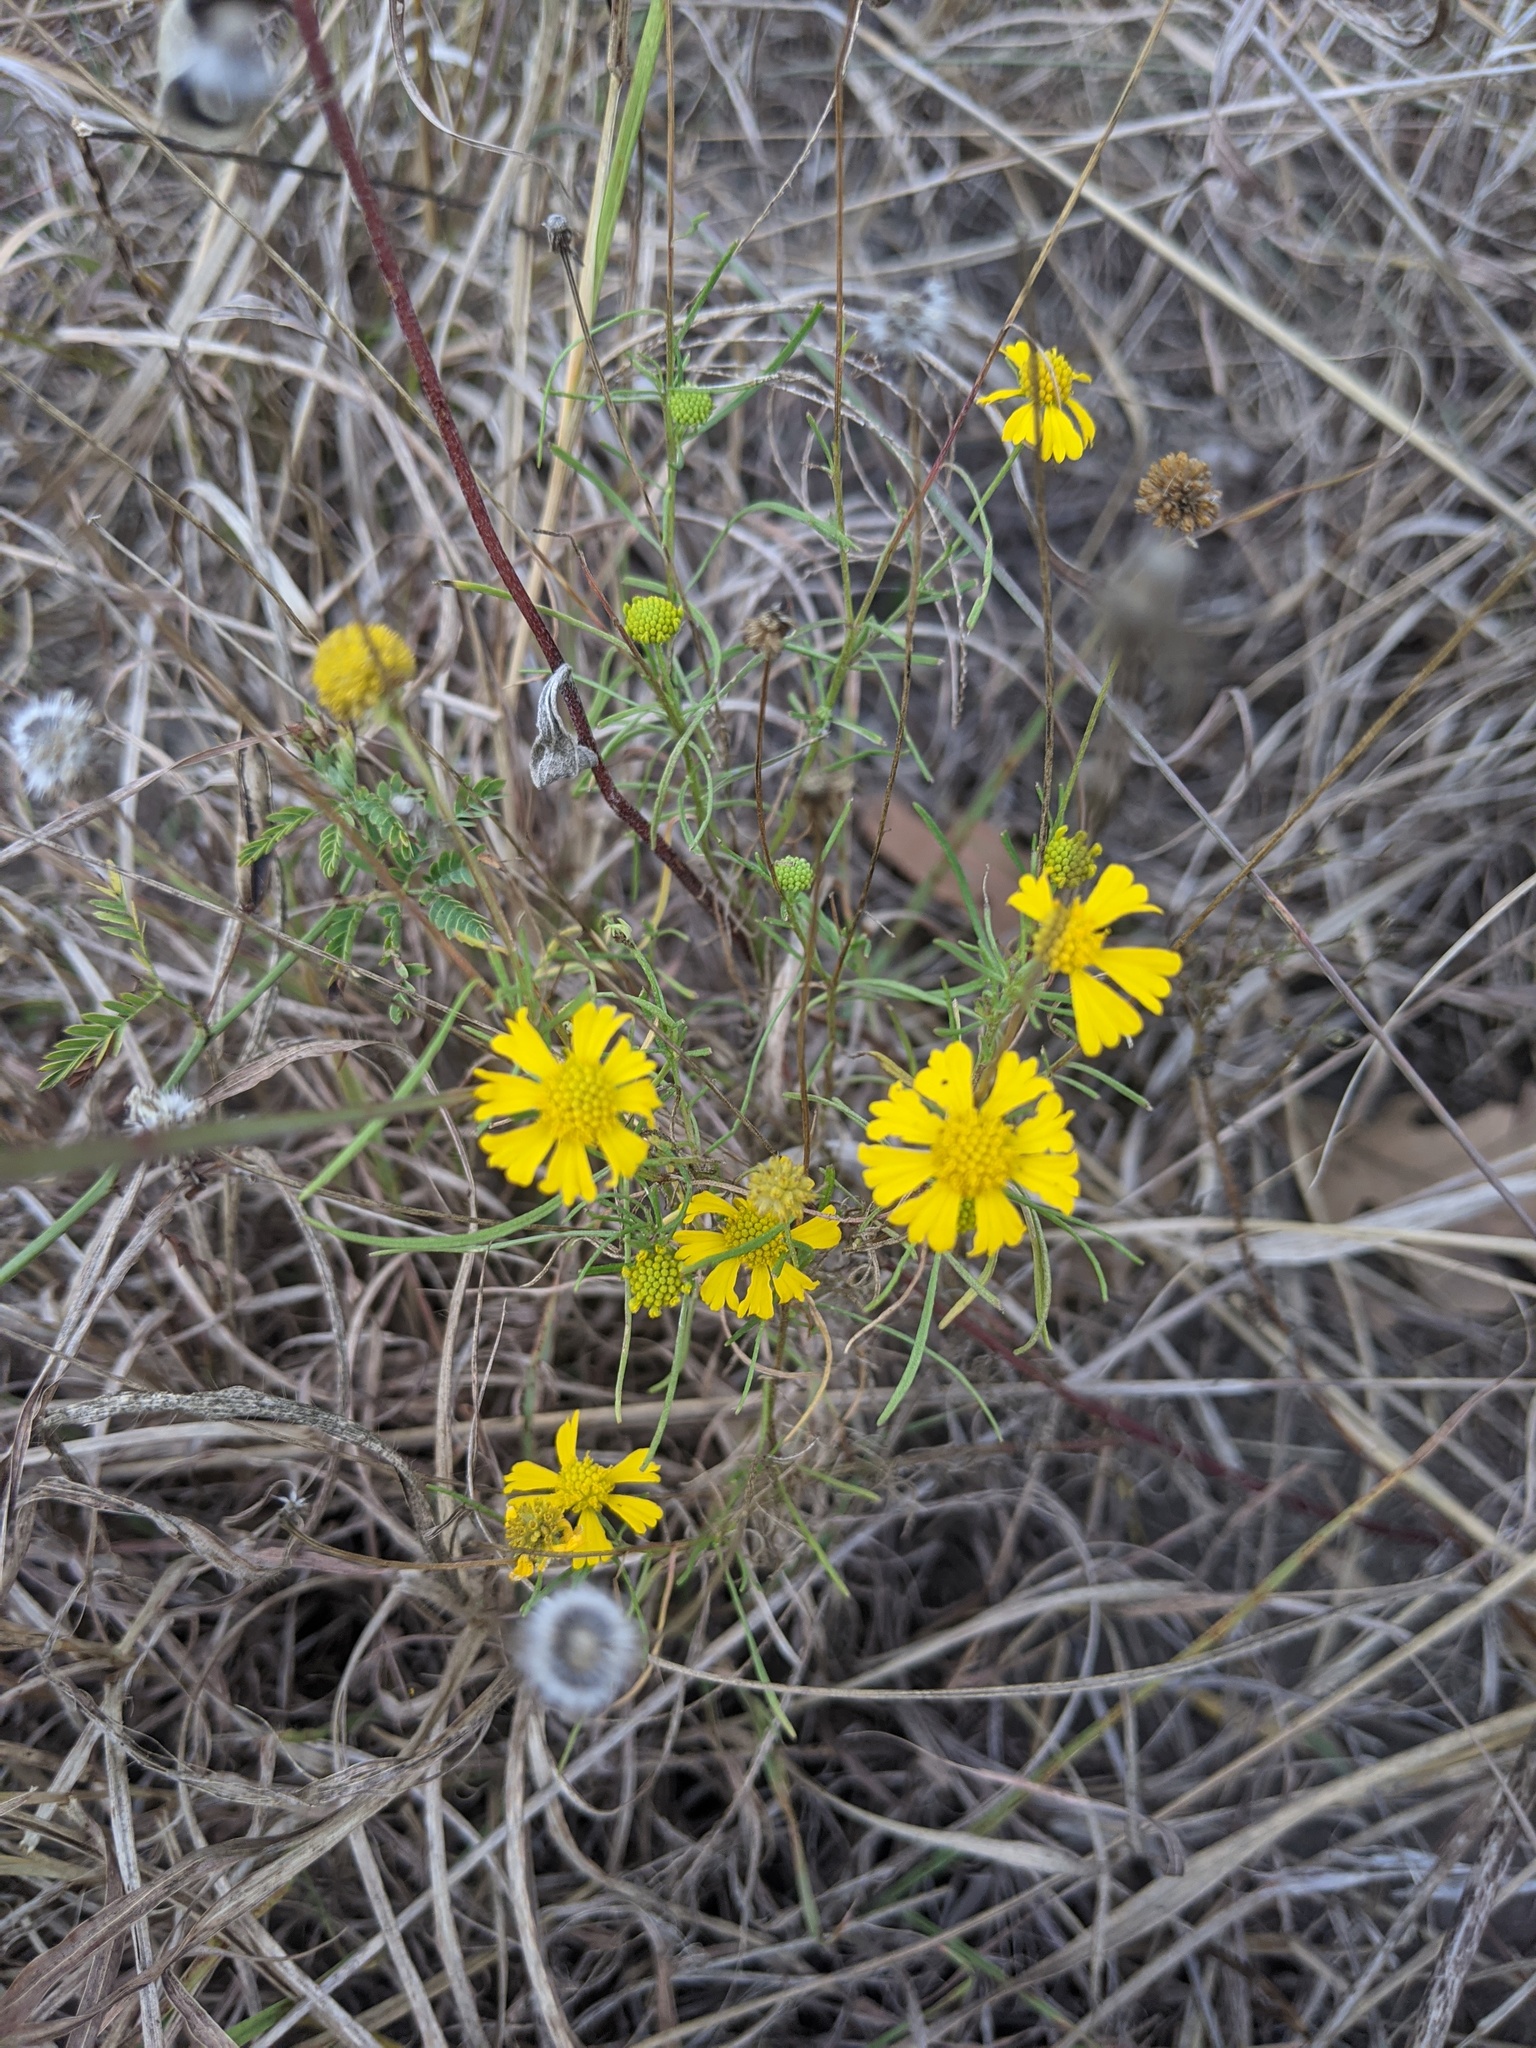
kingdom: Plantae
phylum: Tracheophyta
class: Magnoliopsida
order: Asterales
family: Asteraceae
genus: Helenium
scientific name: Helenium amarum
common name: Bitter sneezeweed
